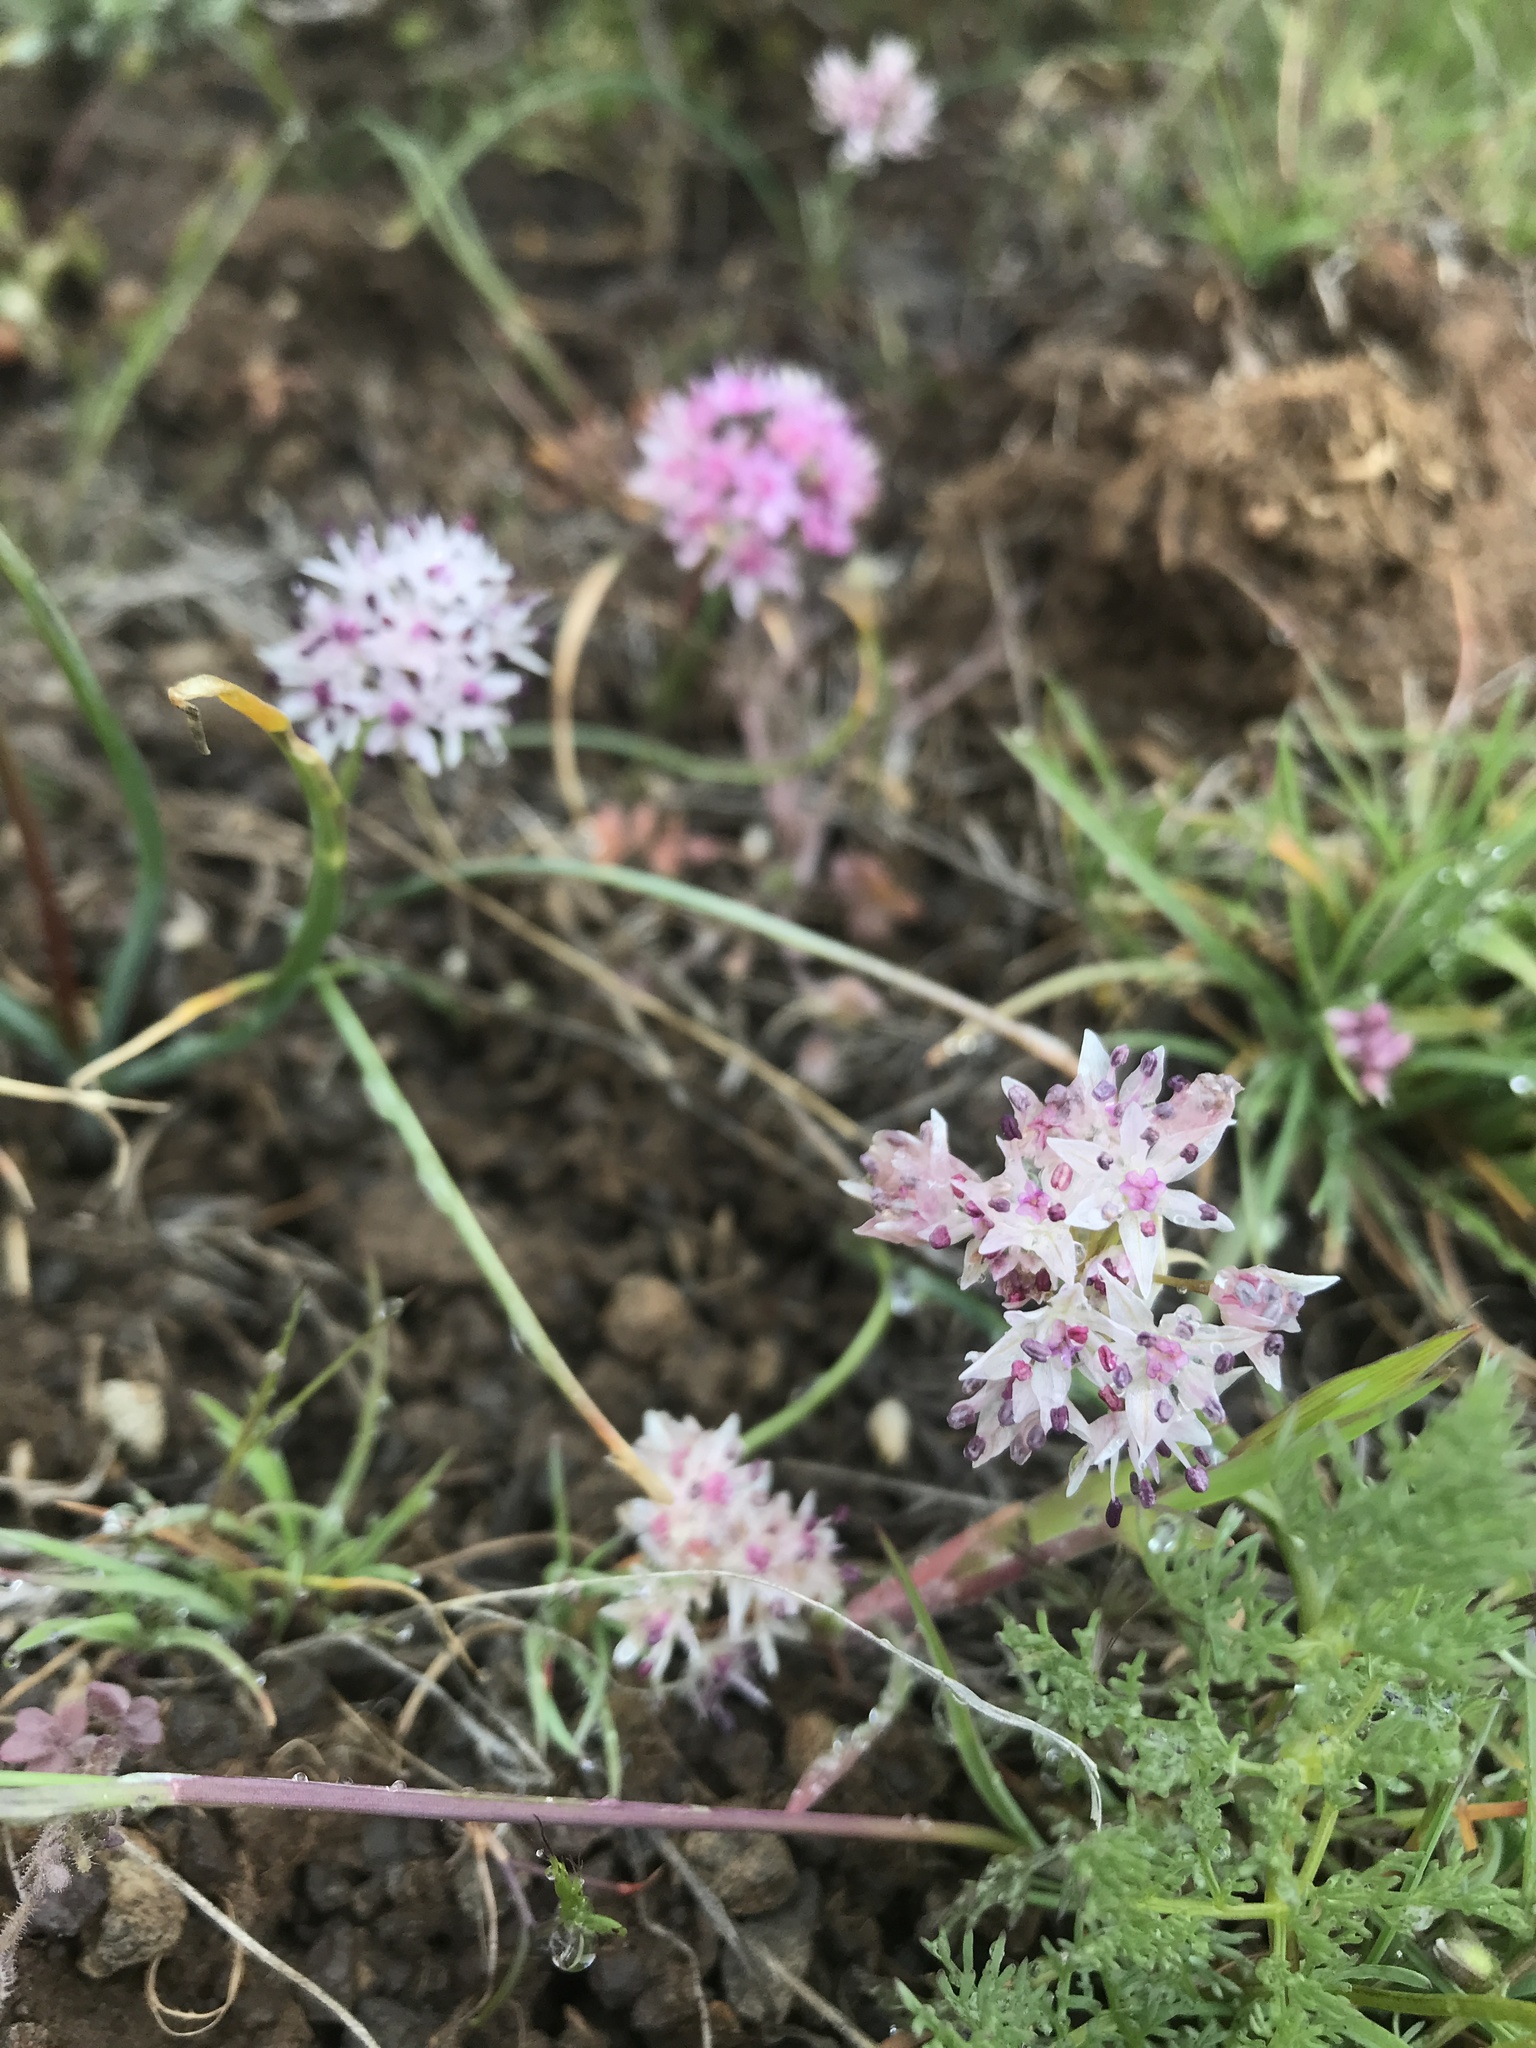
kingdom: Plantae
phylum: Tracheophyta
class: Liliopsida
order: Asparagales
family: Amaryllidaceae
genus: Allium
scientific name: Allium macrum
